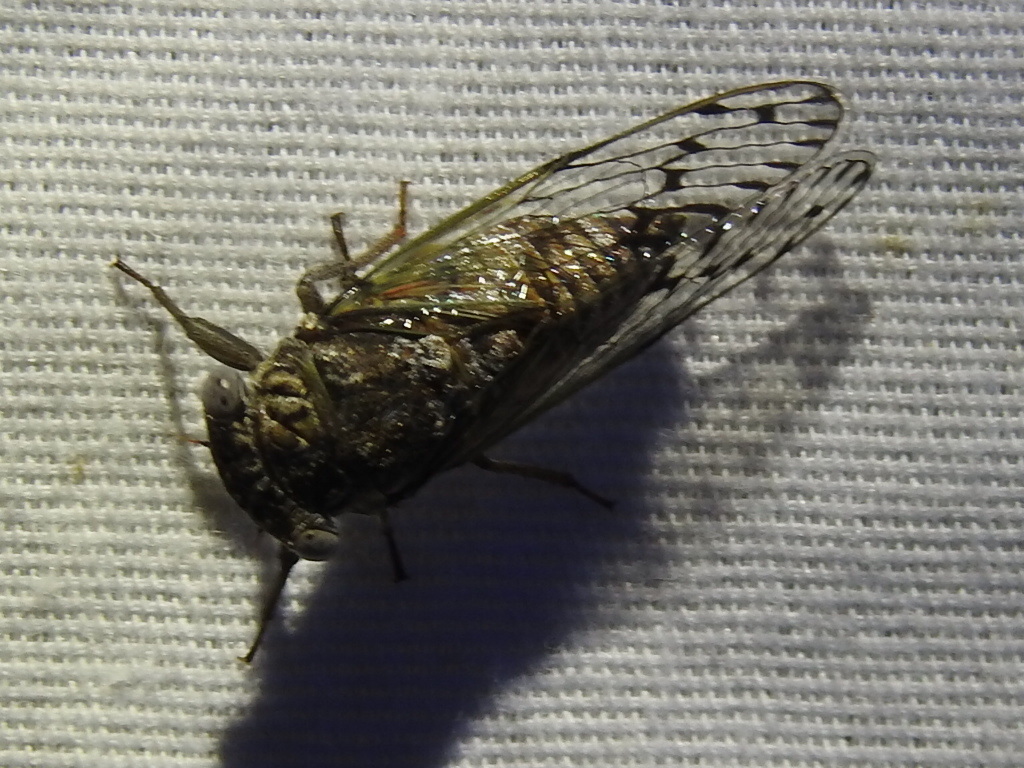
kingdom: Animalia
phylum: Arthropoda
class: Insecta
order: Hemiptera
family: Cicadidae
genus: Pacarina
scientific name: Pacarina puella
